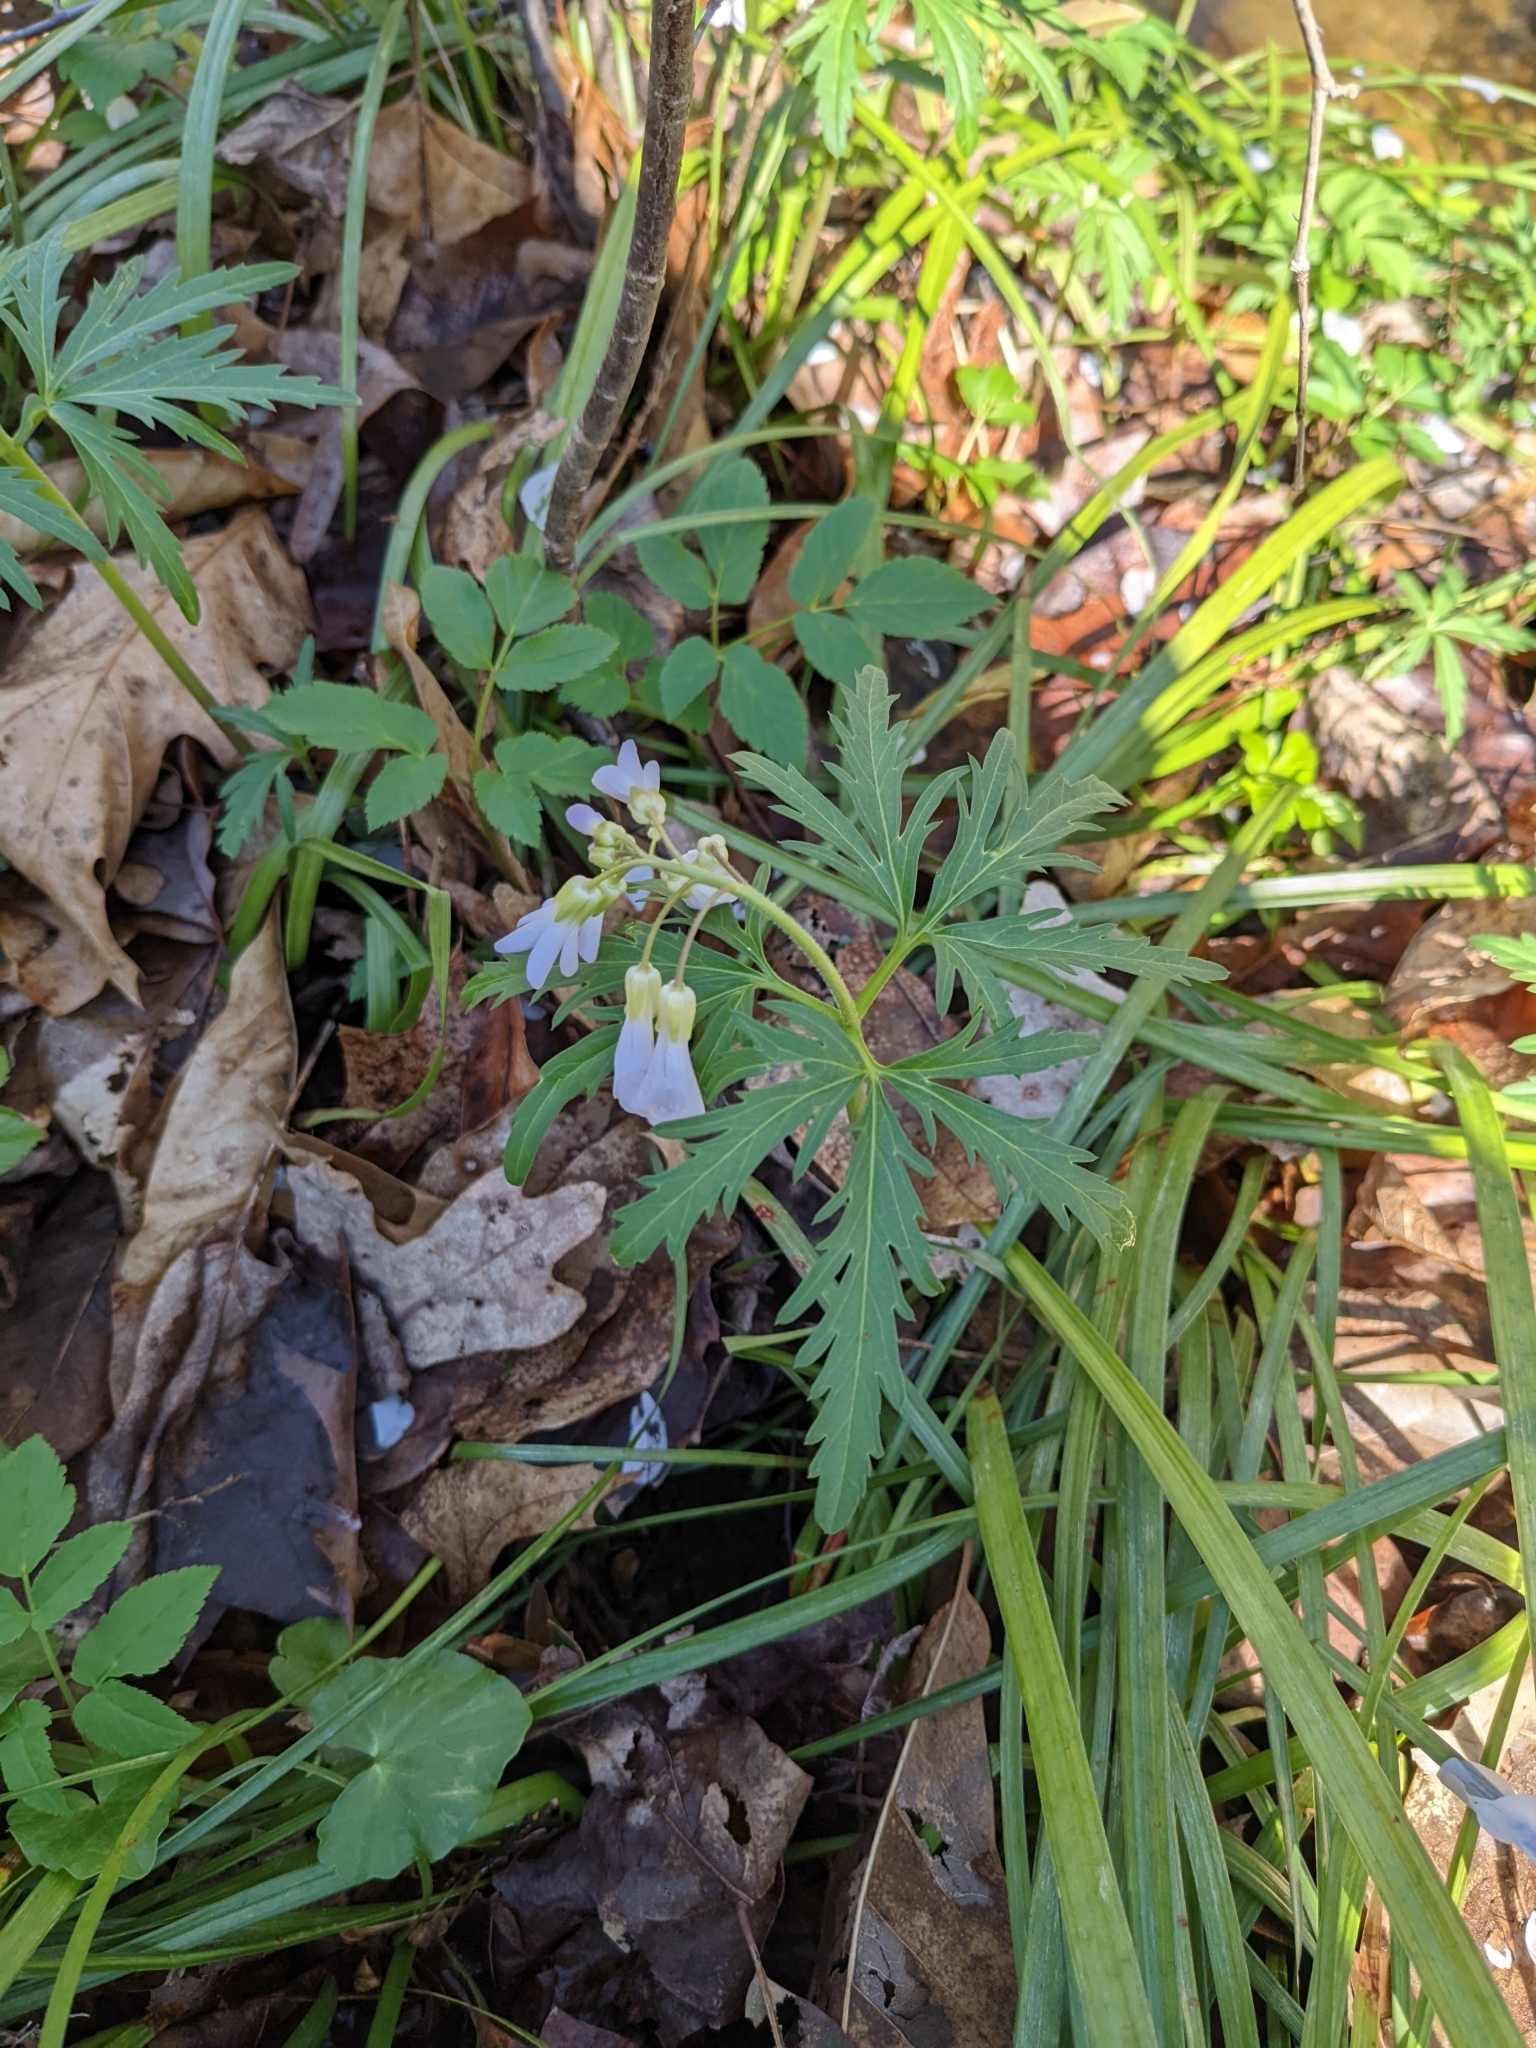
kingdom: Plantae
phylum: Tracheophyta
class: Magnoliopsida
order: Brassicales
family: Brassicaceae
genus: Cardamine
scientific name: Cardamine concatenata
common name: Cut-leaf toothcup
